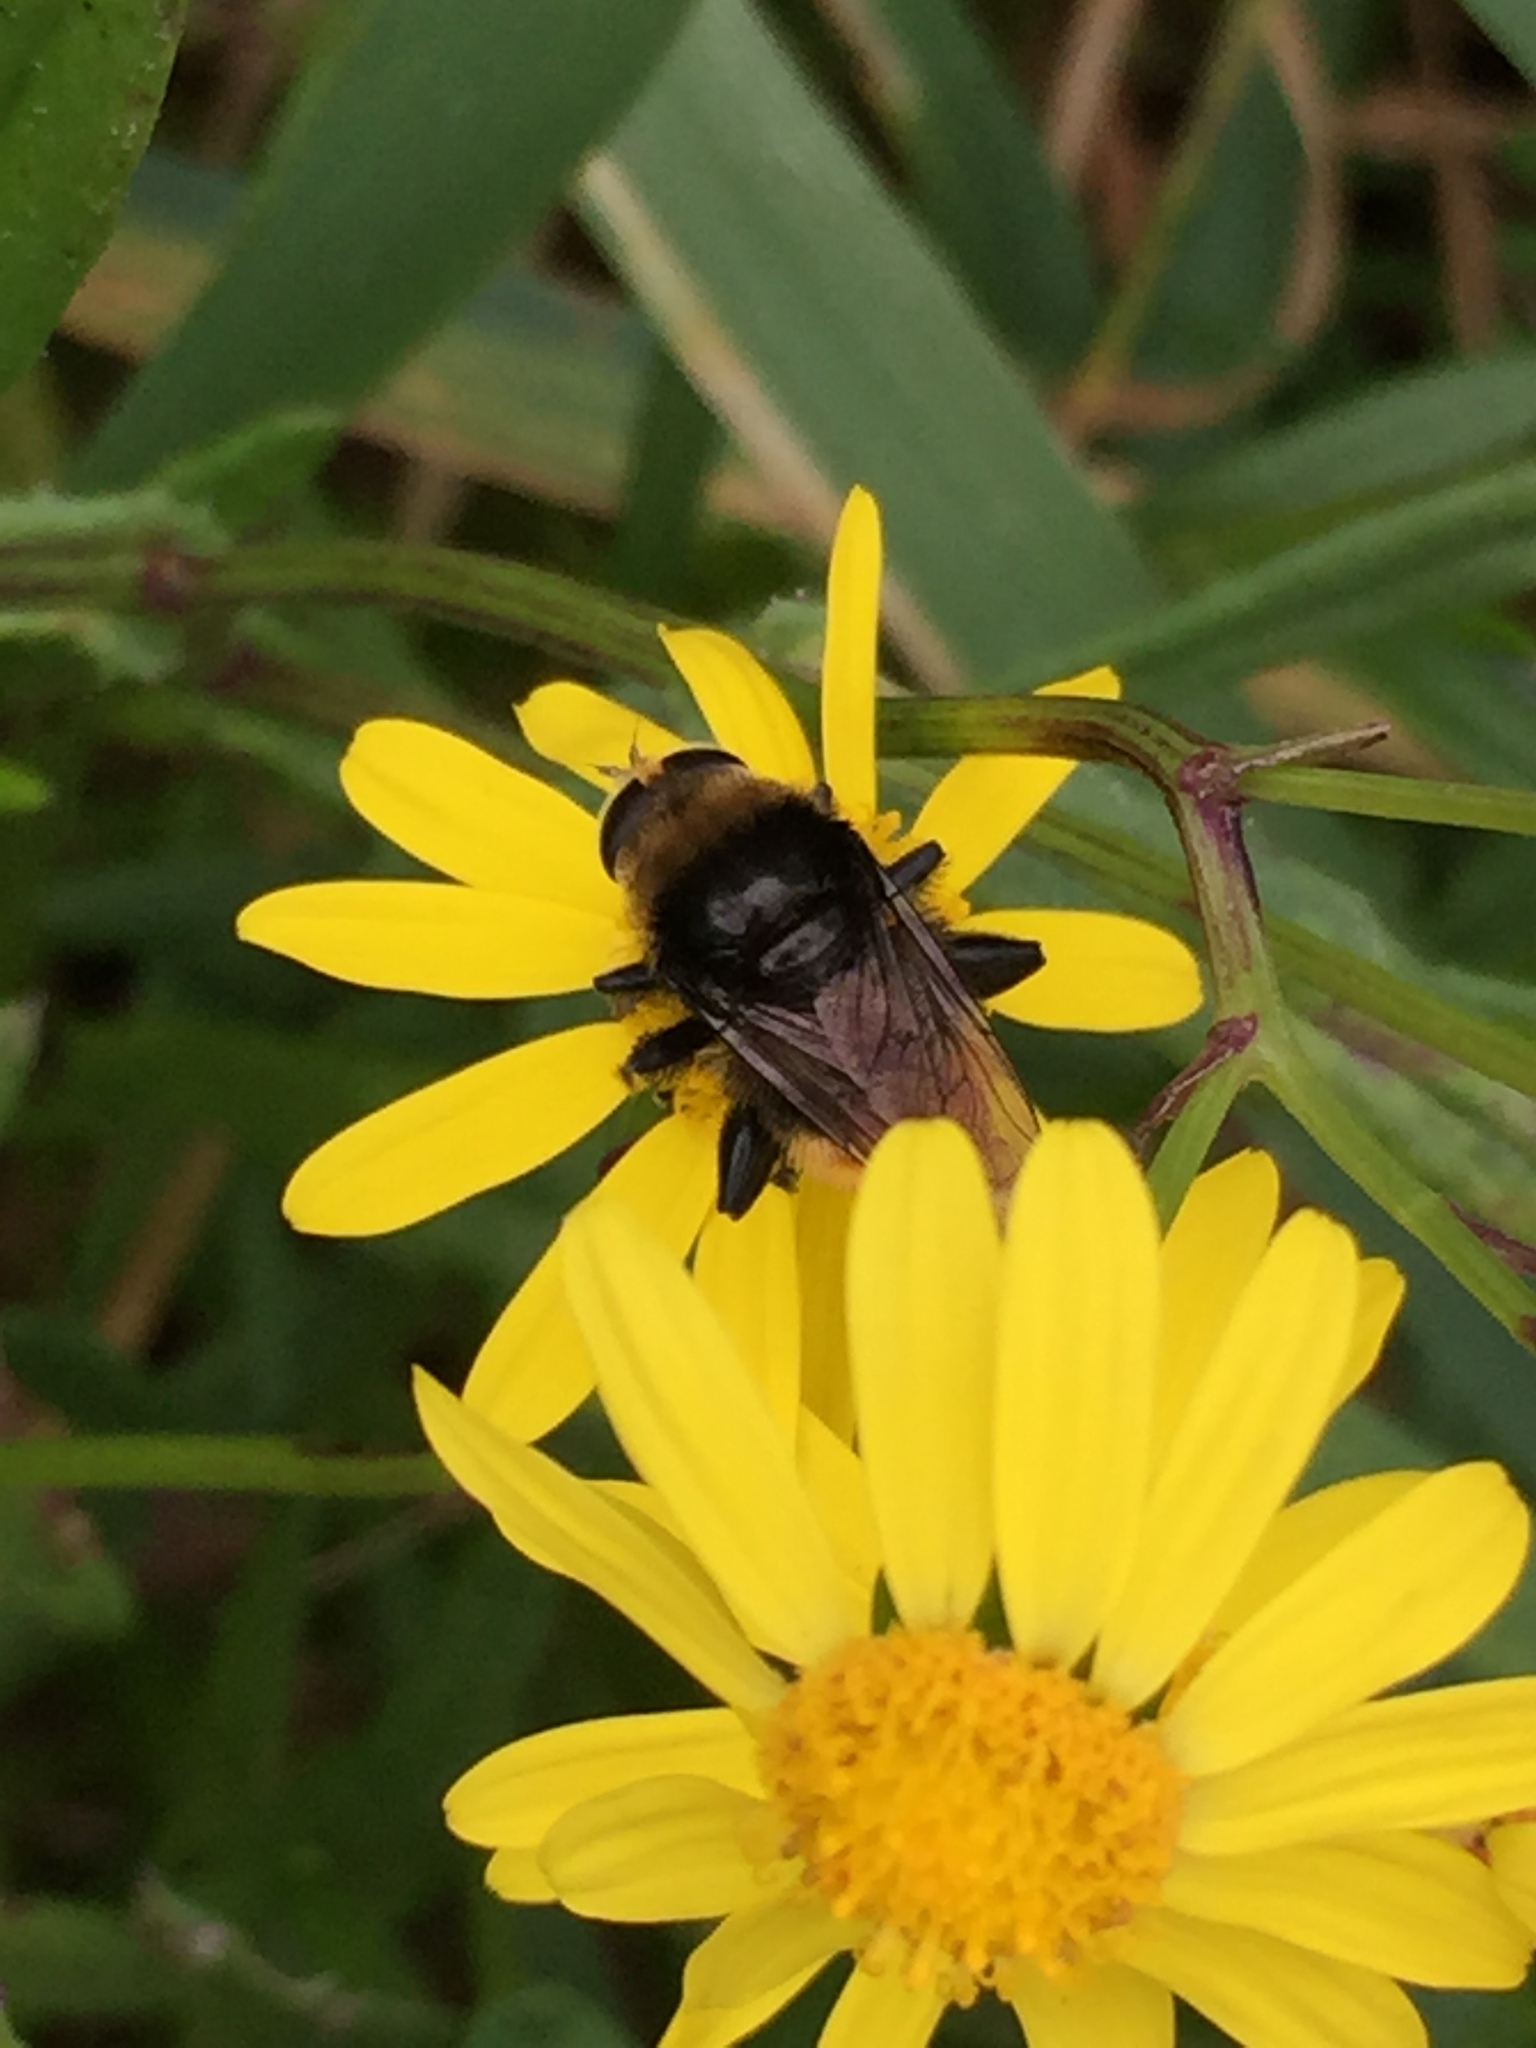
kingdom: Animalia
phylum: Arthropoda
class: Insecta
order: Diptera
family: Syrphidae
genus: Merodon
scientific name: Merodon equestris
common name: Greater bulb-fly
